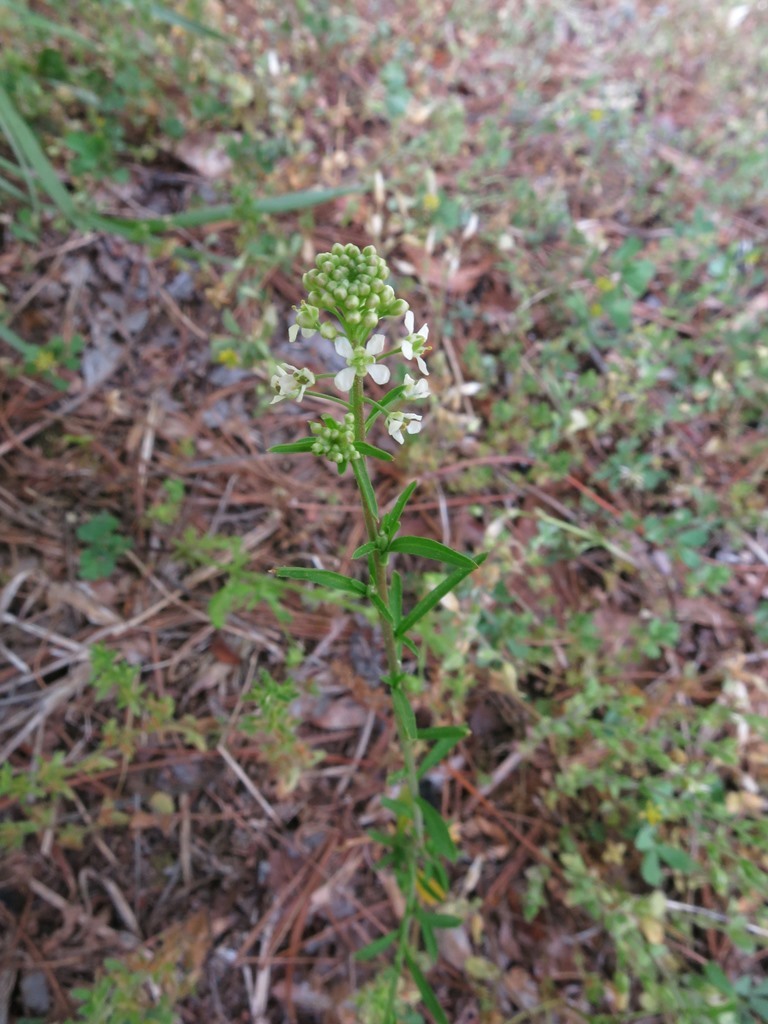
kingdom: Plantae
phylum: Tracheophyta
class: Magnoliopsida
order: Brassicales
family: Brassicaceae
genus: Lepidium
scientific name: Lepidium virginicum
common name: Least pepperwort
